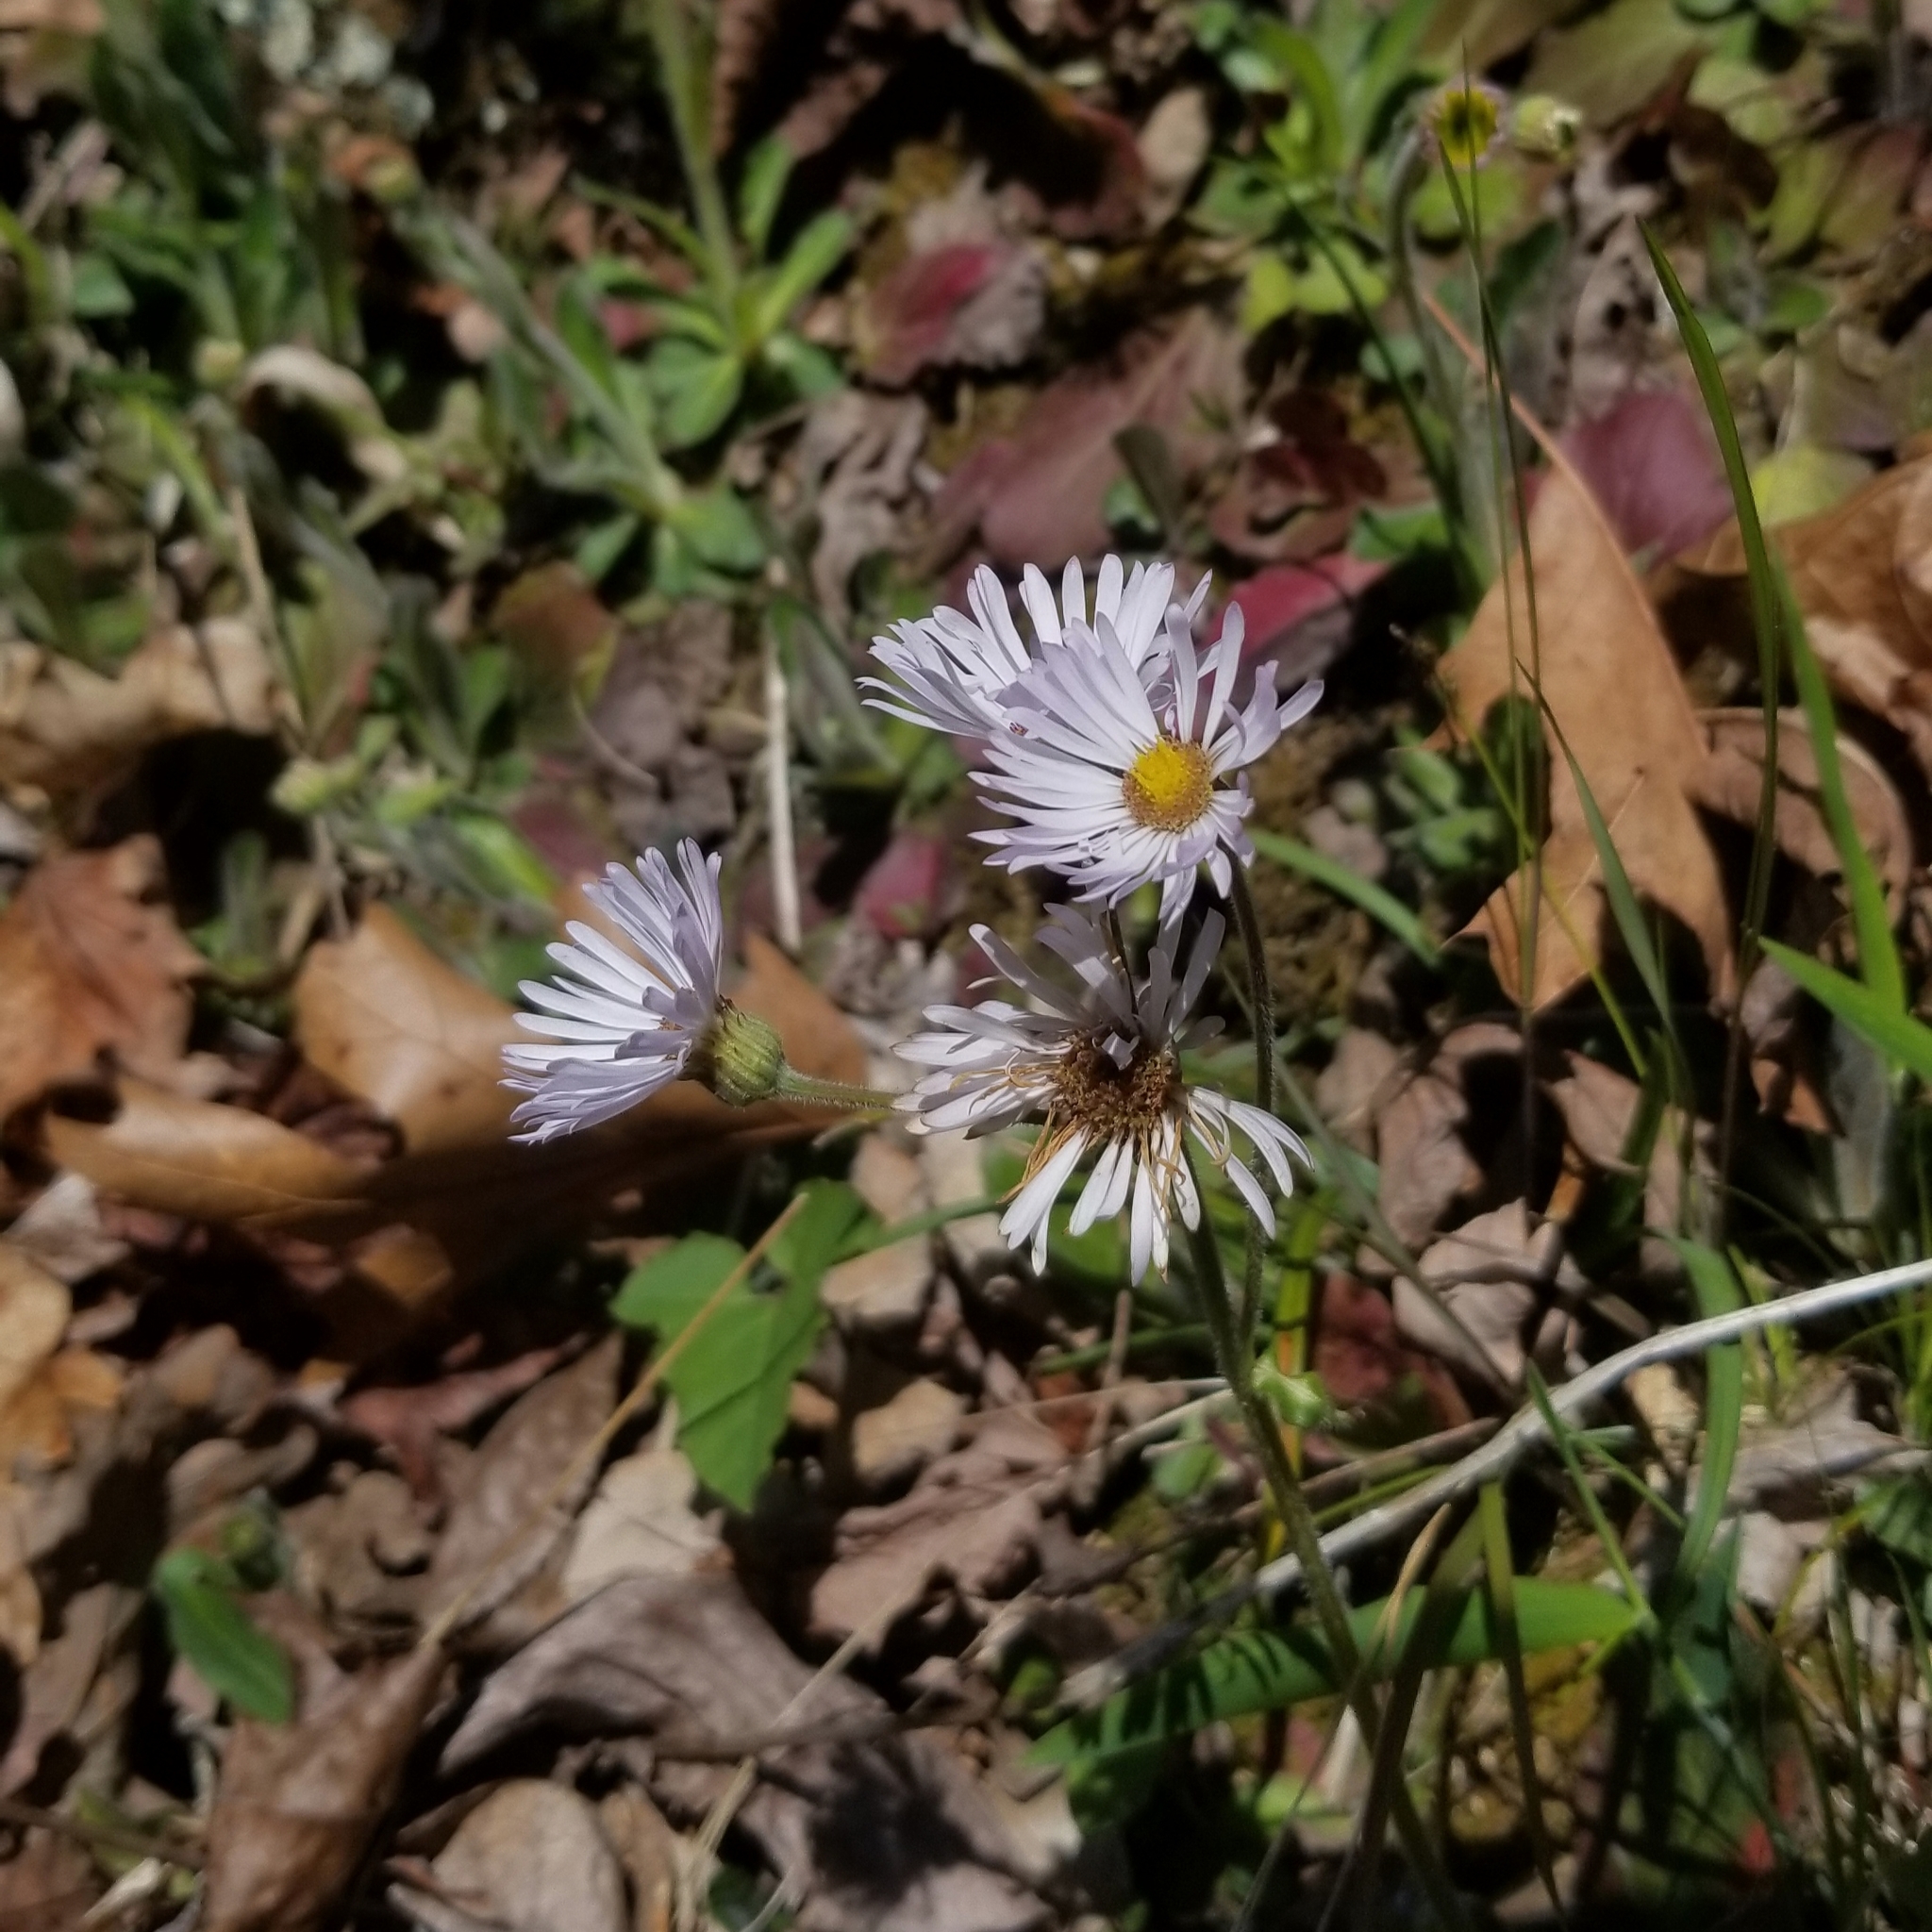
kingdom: Plantae
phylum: Tracheophyta
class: Magnoliopsida
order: Asterales
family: Asteraceae
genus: Erigeron
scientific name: Erigeron pulchellus
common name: Hairy fleabane
